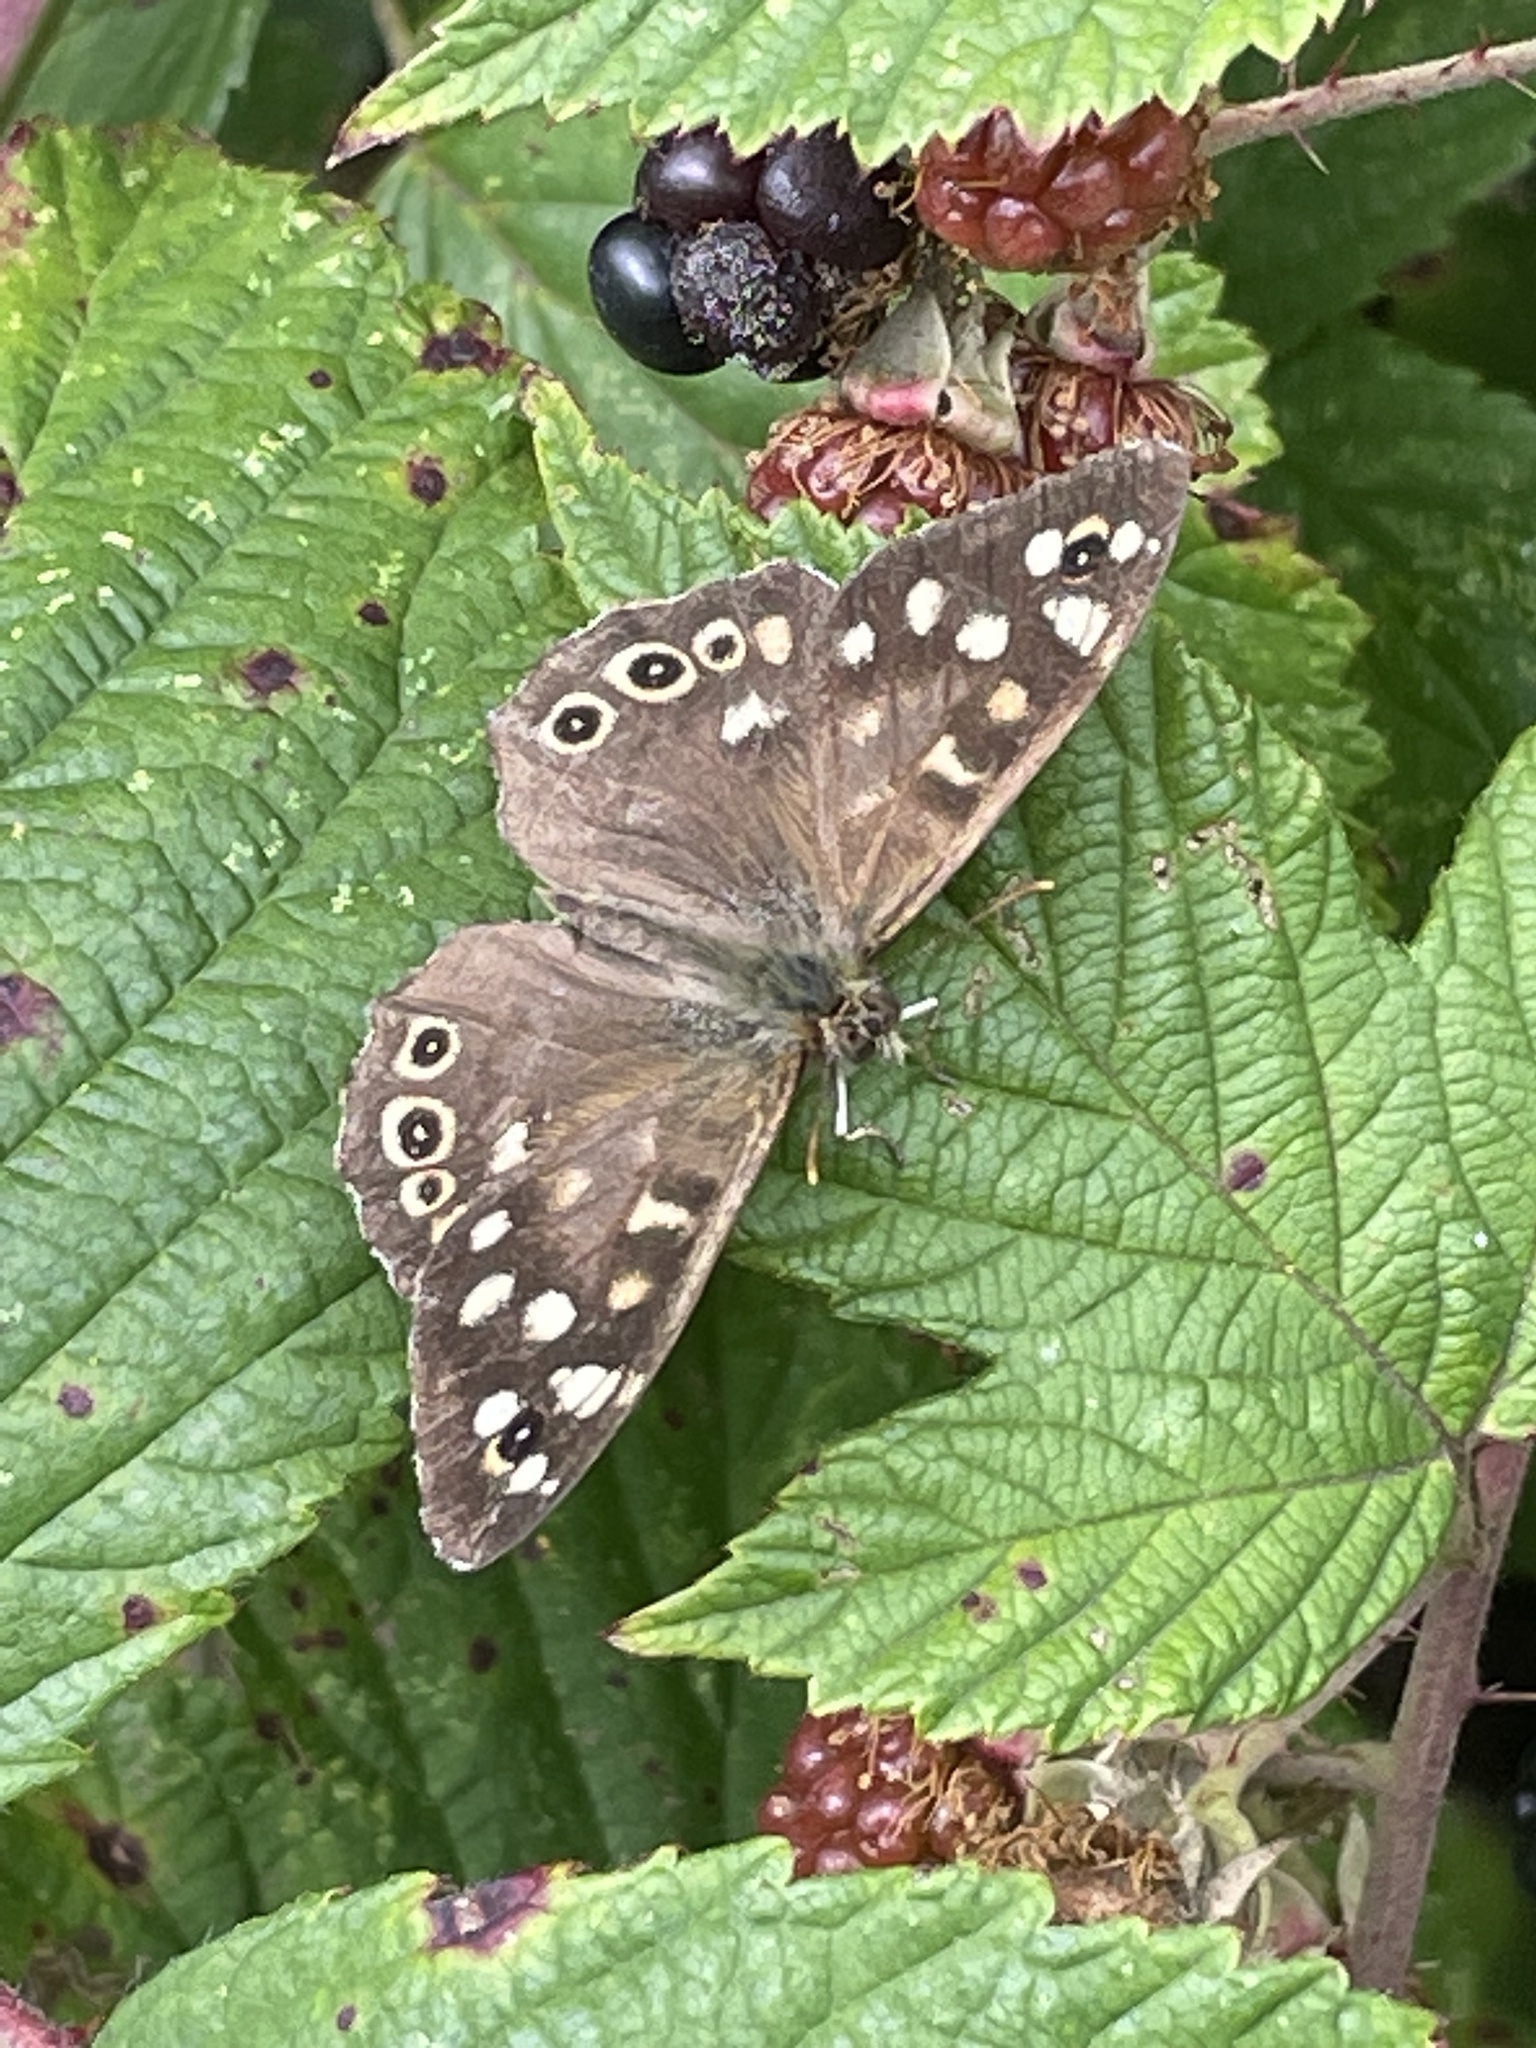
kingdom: Animalia
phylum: Arthropoda
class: Insecta
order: Lepidoptera
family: Nymphalidae
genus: Pararge
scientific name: Pararge aegeria
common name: Speckled wood
